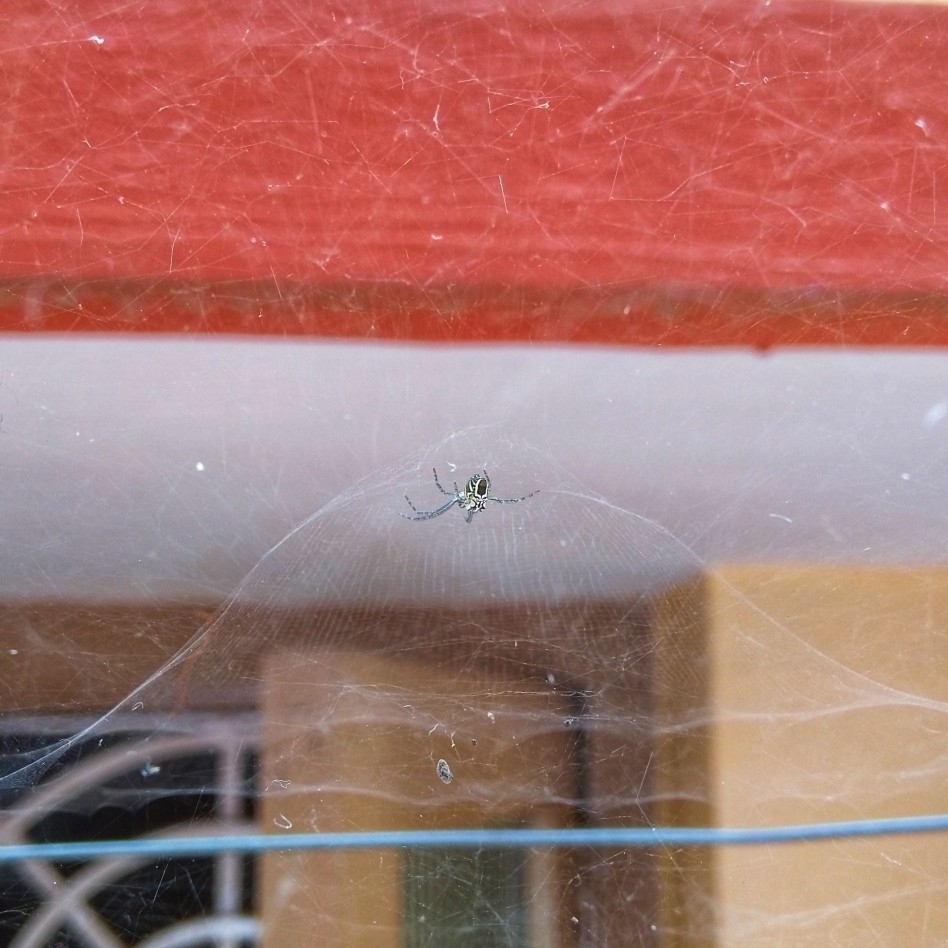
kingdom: Animalia
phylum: Arthropoda
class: Arachnida
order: Araneae
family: Araneidae
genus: Cyrtophora
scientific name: Cyrtophora cicatrosa
